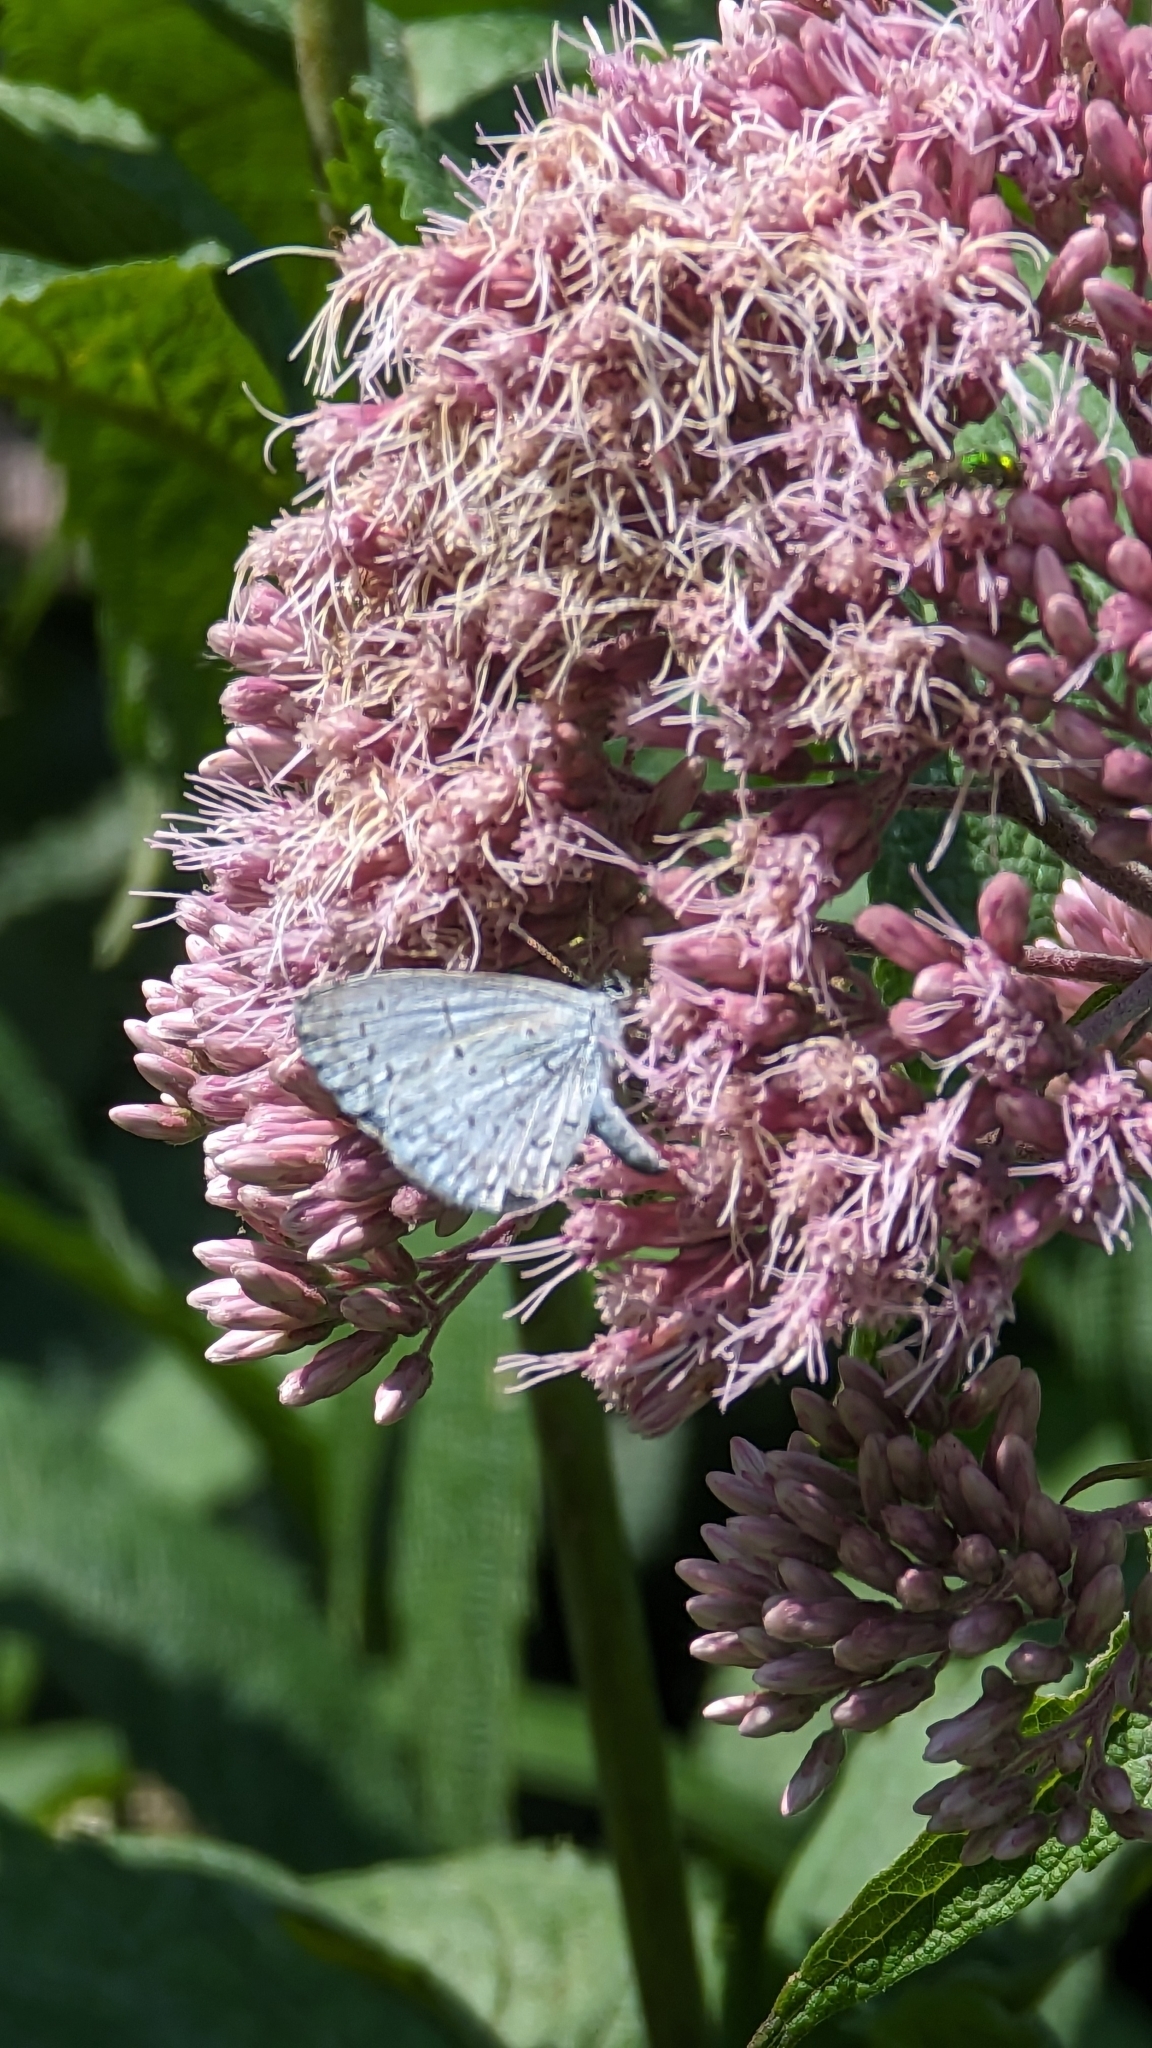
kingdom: Animalia
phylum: Arthropoda
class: Insecta
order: Lepidoptera
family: Lycaenidae
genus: Cyaniris
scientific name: Cyaniris neglecta
